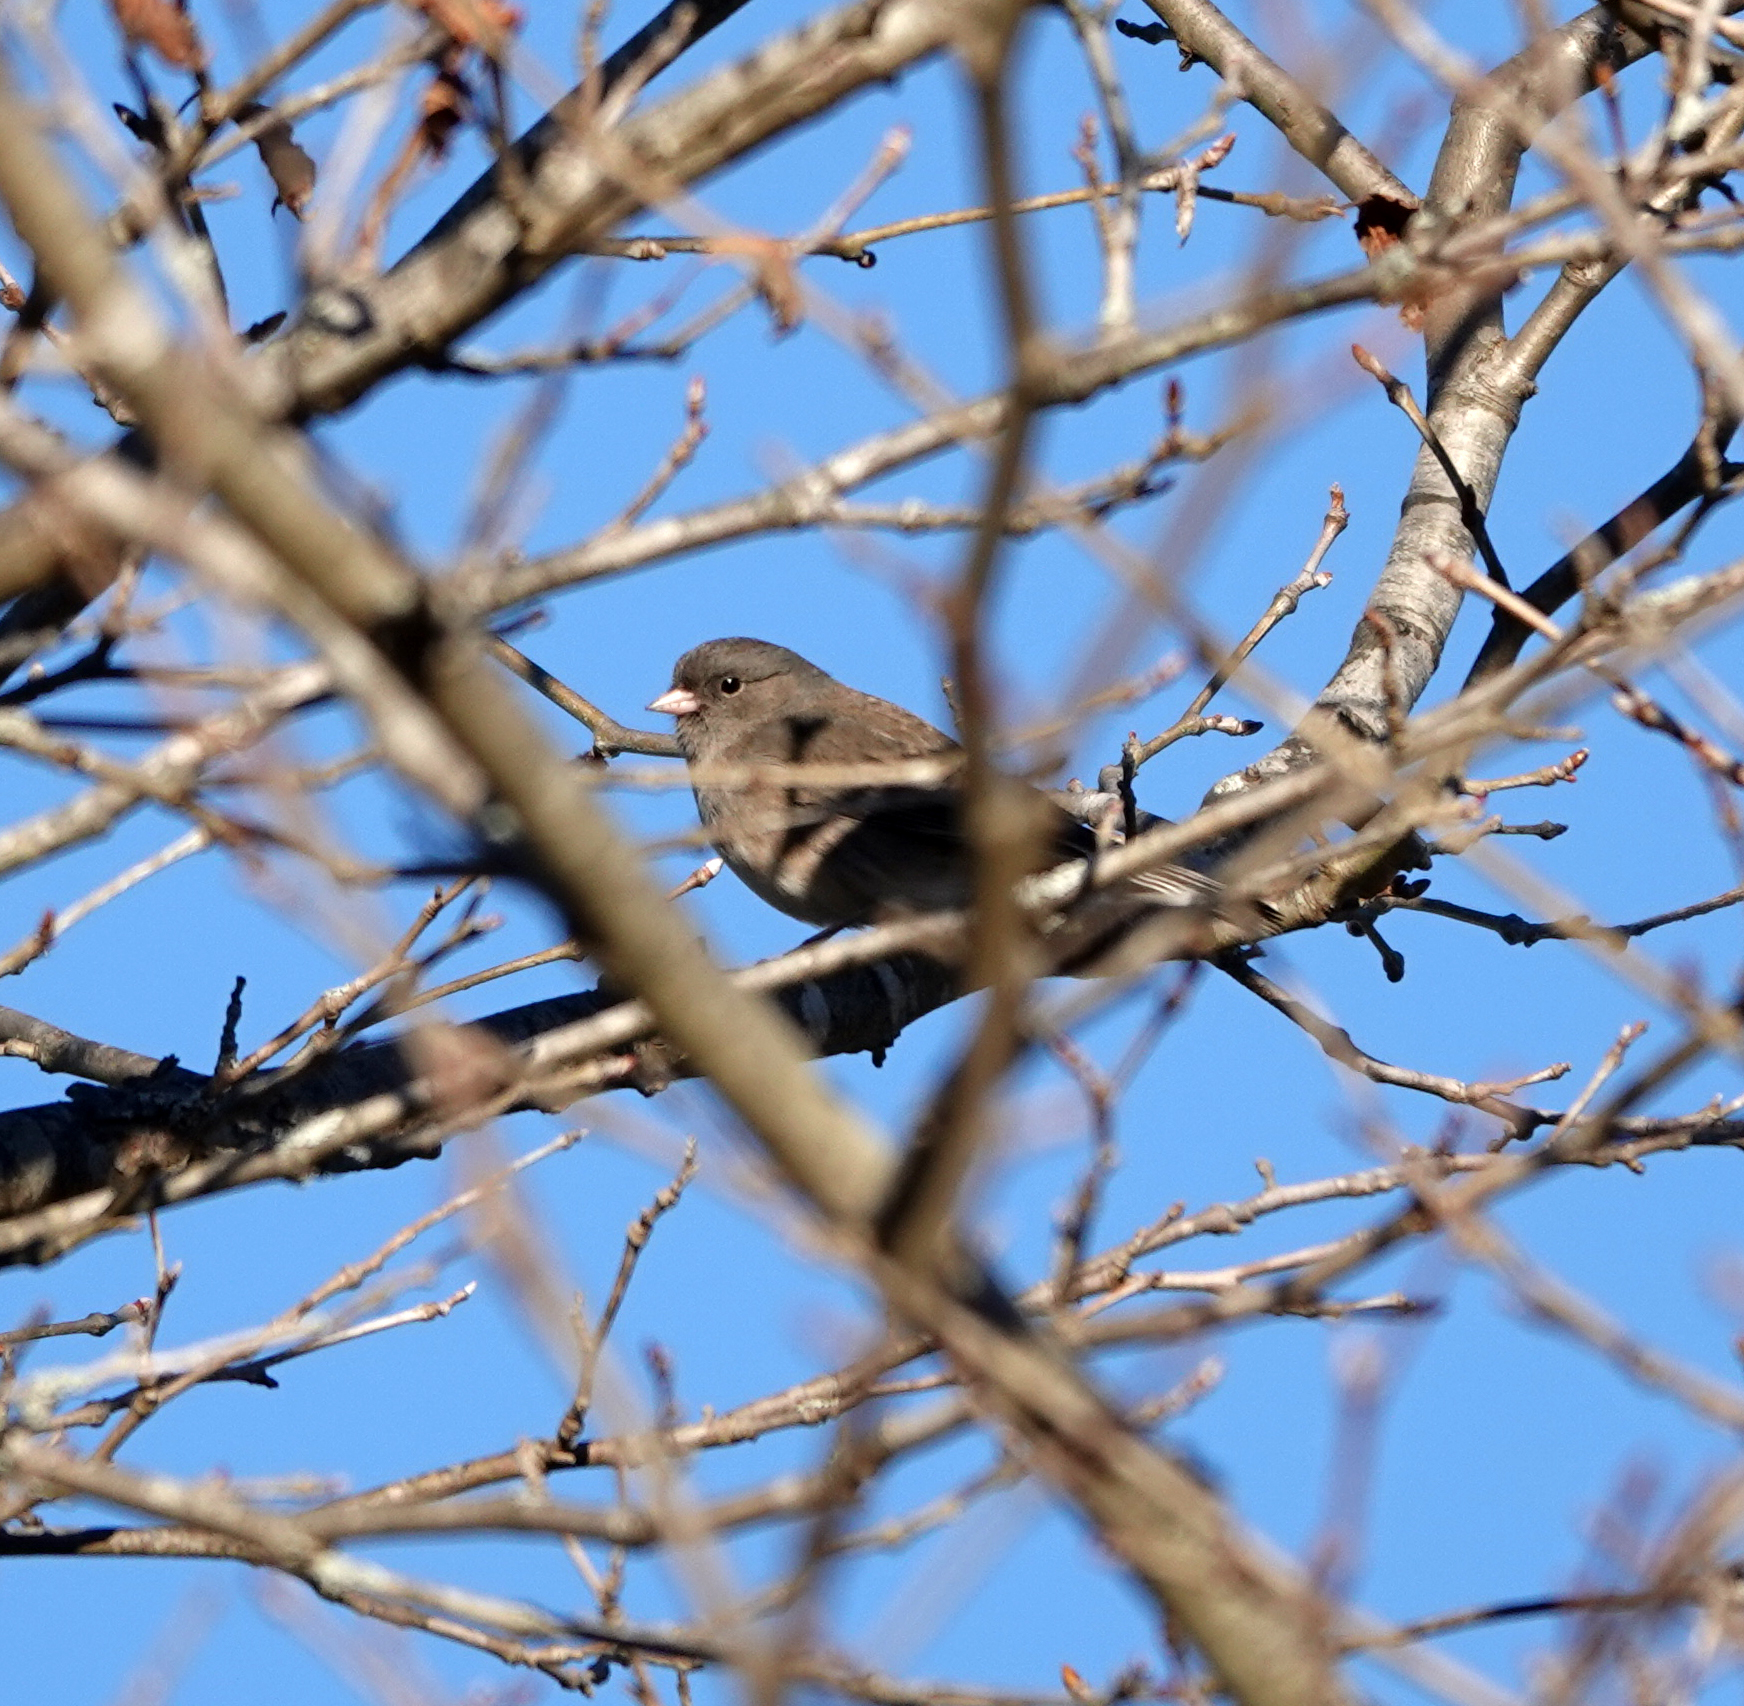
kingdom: Animalia
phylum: Chordata
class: Aves
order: Passeriformes
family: Passerellidae
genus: Junco
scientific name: Junco hyemalis
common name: Dark-eyed junco
